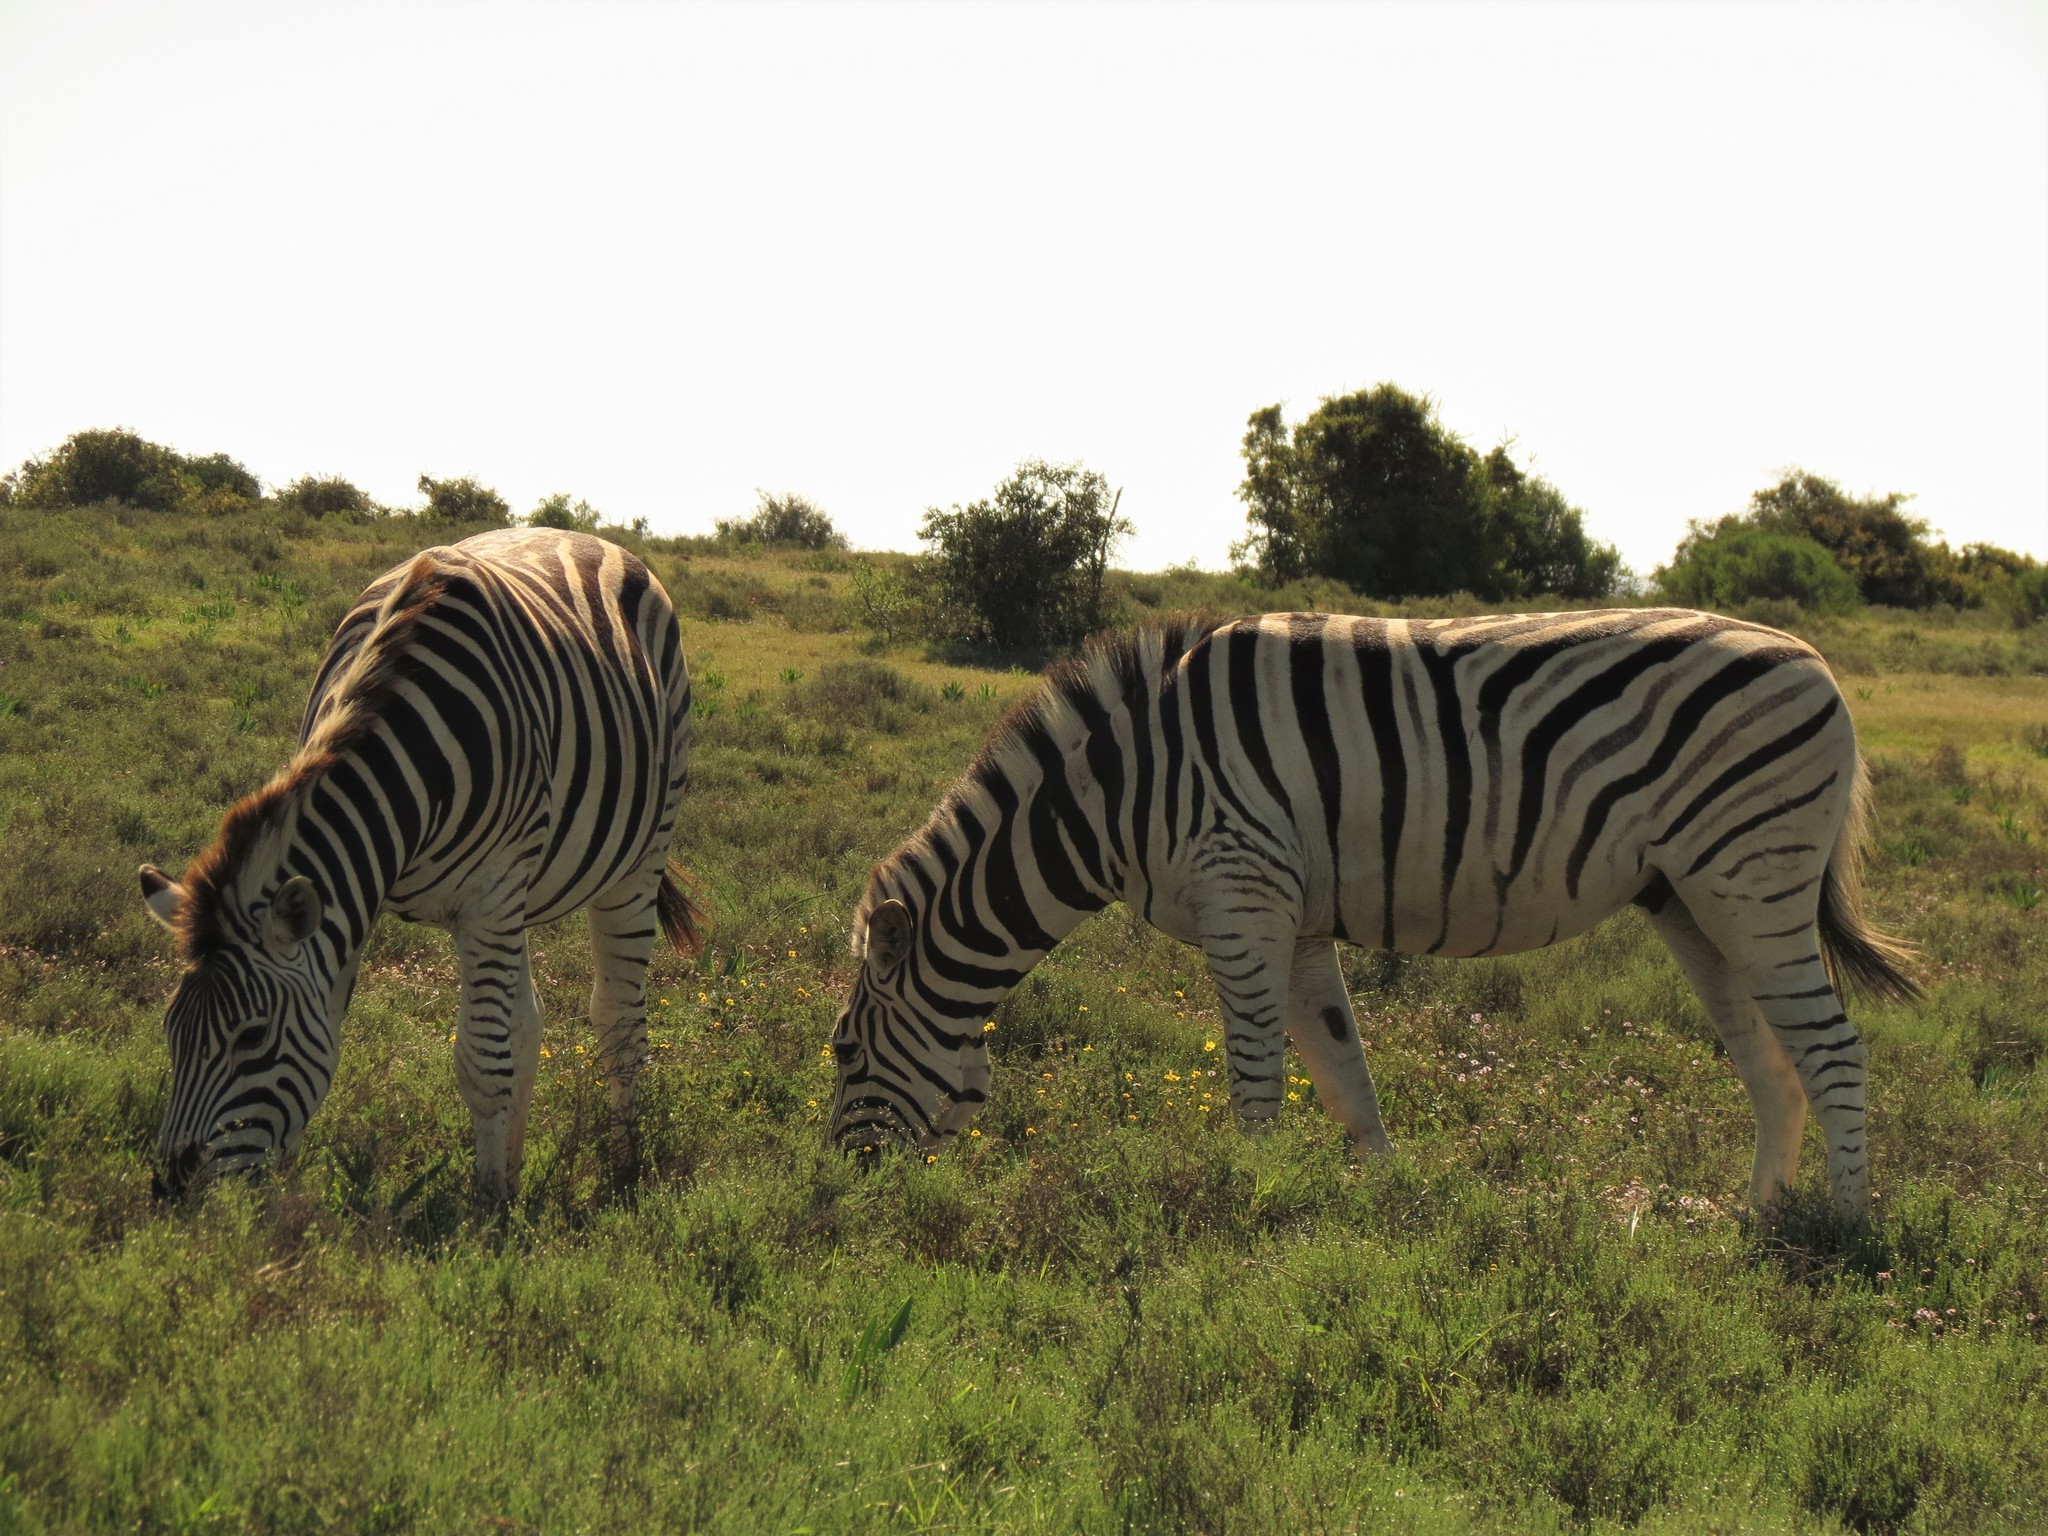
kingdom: Animalia
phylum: Chordata
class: Mammalia
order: Perissodactyla
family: Equidae
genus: Equus
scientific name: Equus quagga
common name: Plains zebra
